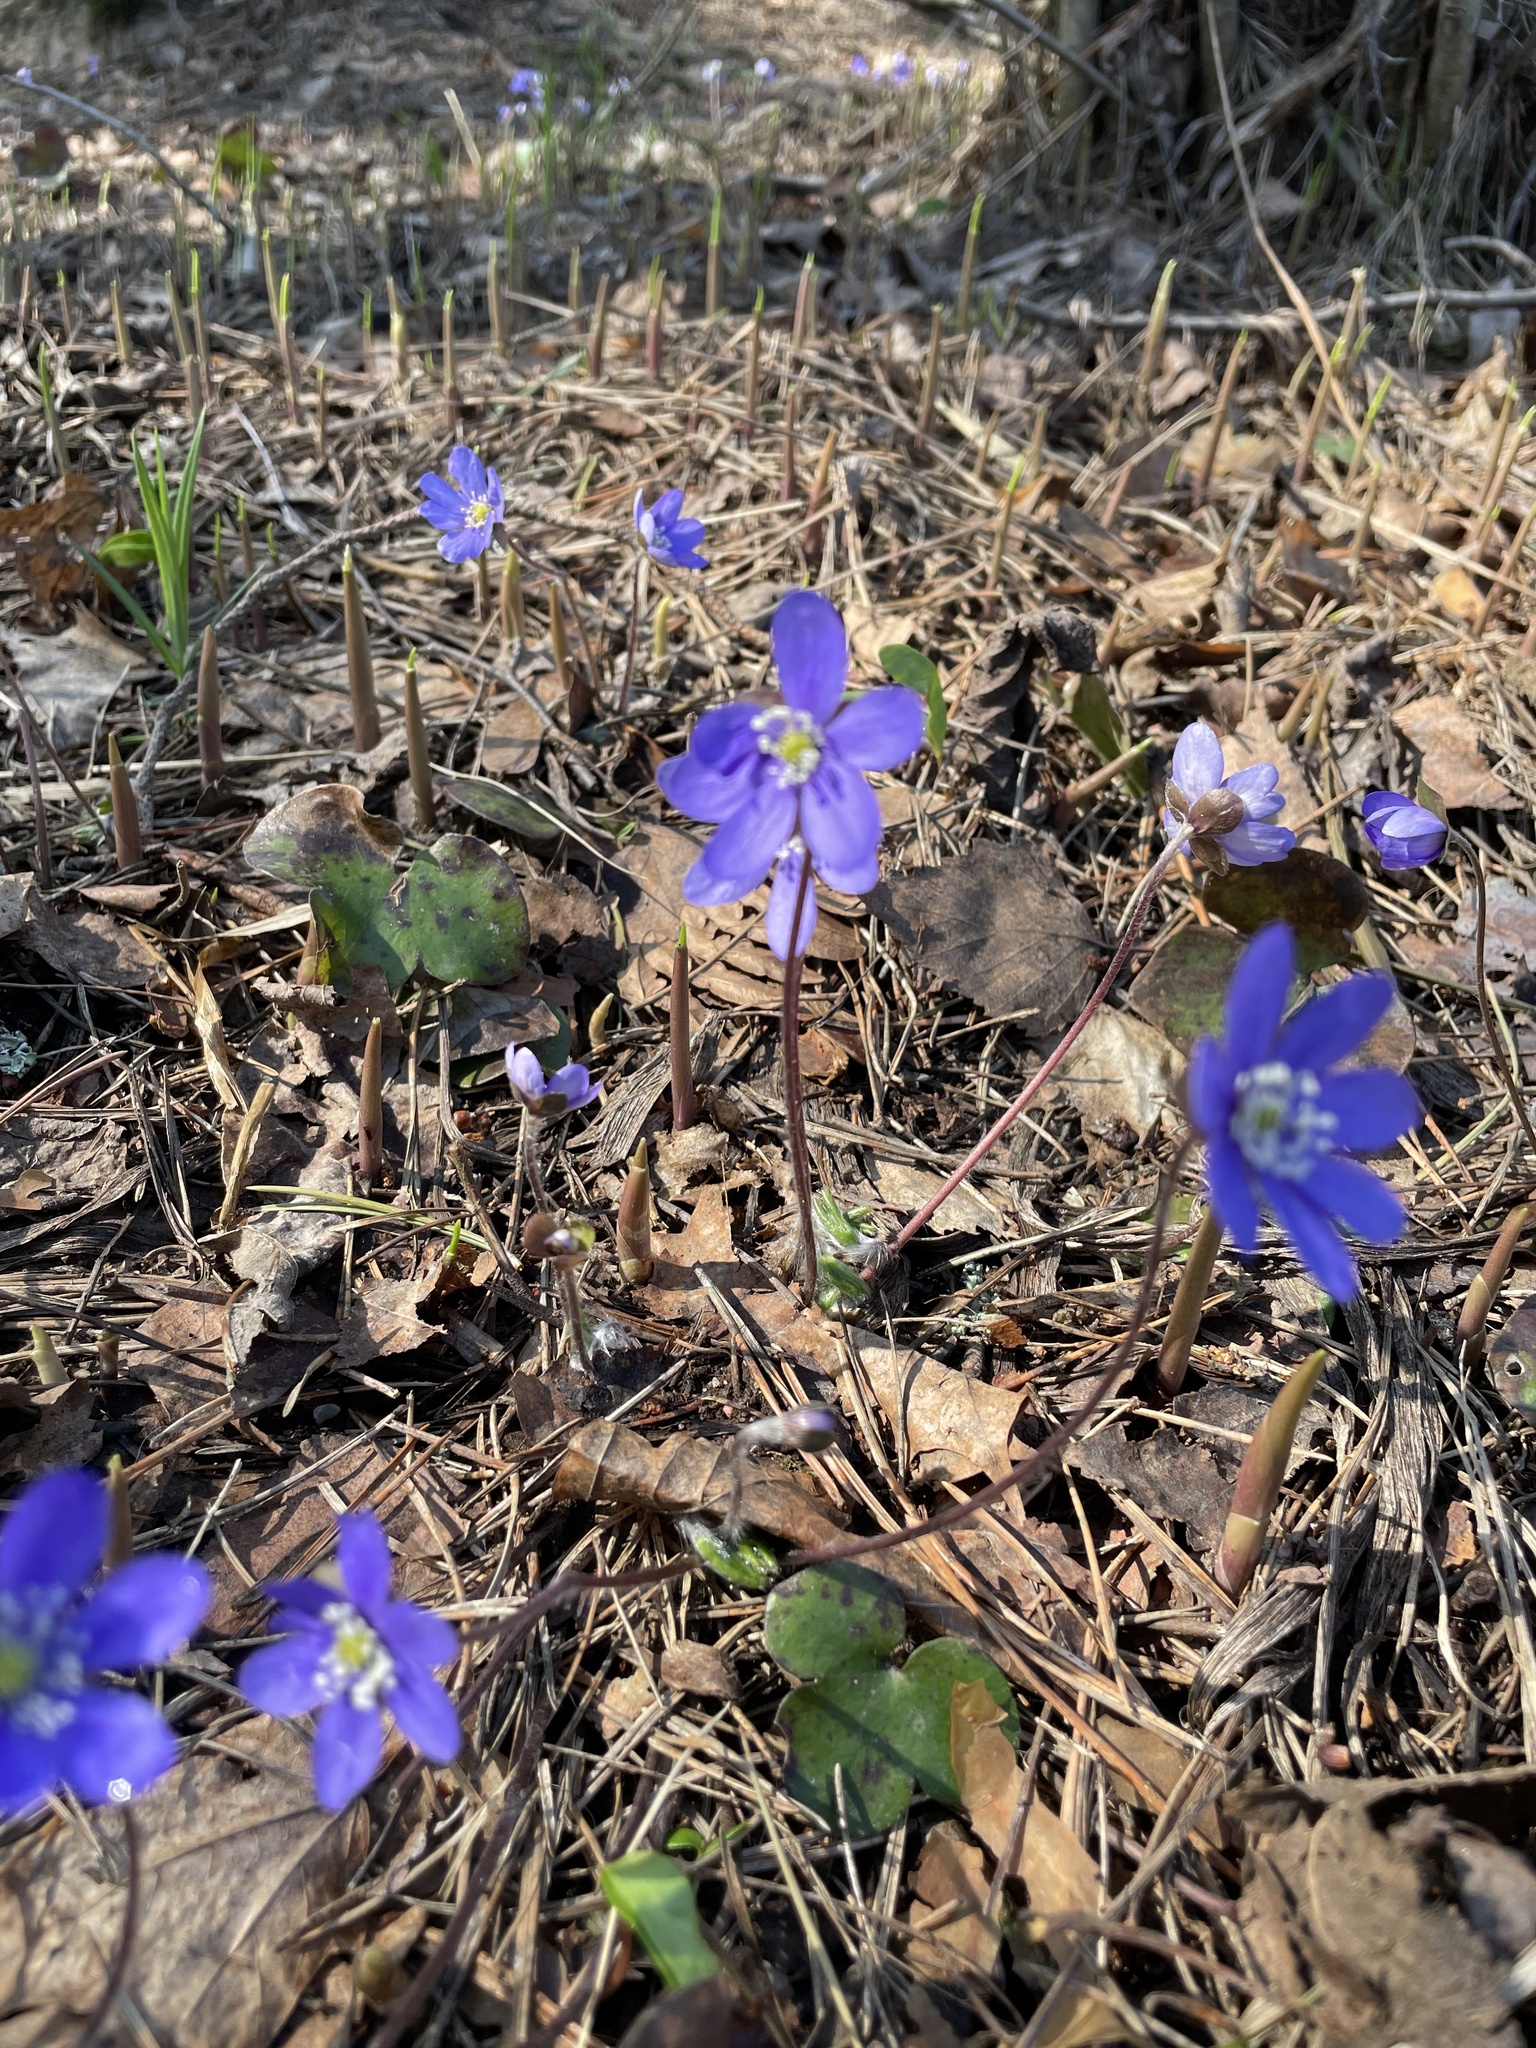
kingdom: Plantae
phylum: Tracheophyta
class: Magnoliopsida
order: Ranunculales
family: Ranunculaceae
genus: Hepatica
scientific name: Hepatica nobilis
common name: Liverleaf
